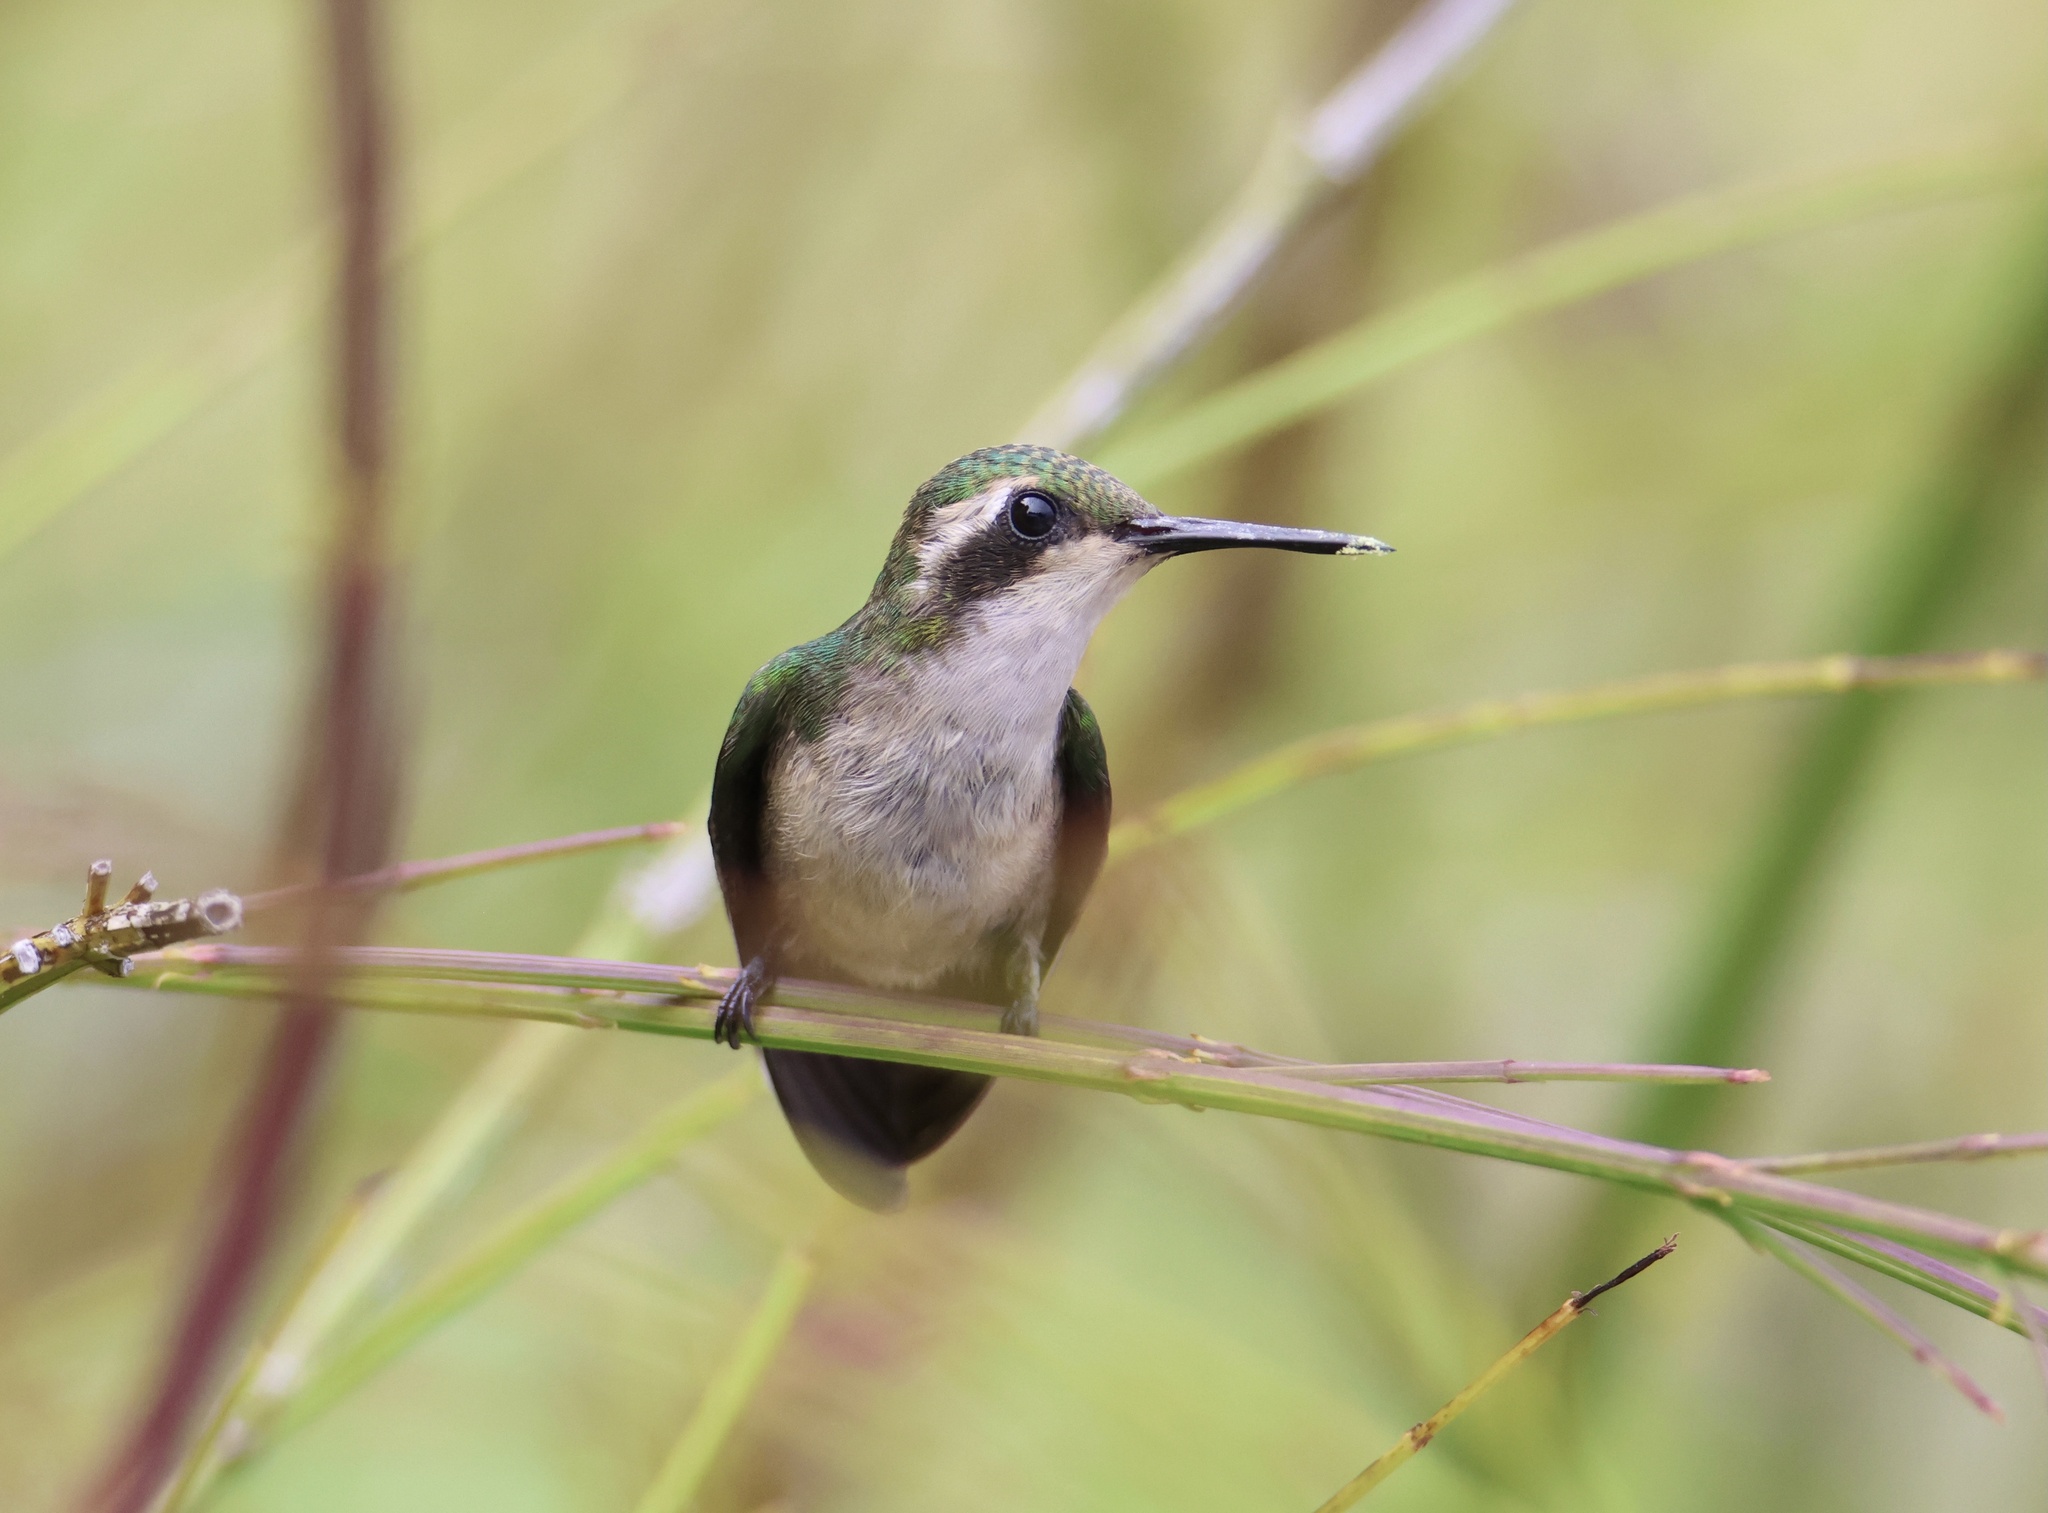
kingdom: Animalia
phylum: Chordata
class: Aves
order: Apodiformes
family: Trochilidae
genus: Chlorostilbon
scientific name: Chlorostilbon assimilis
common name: Garden emerald
